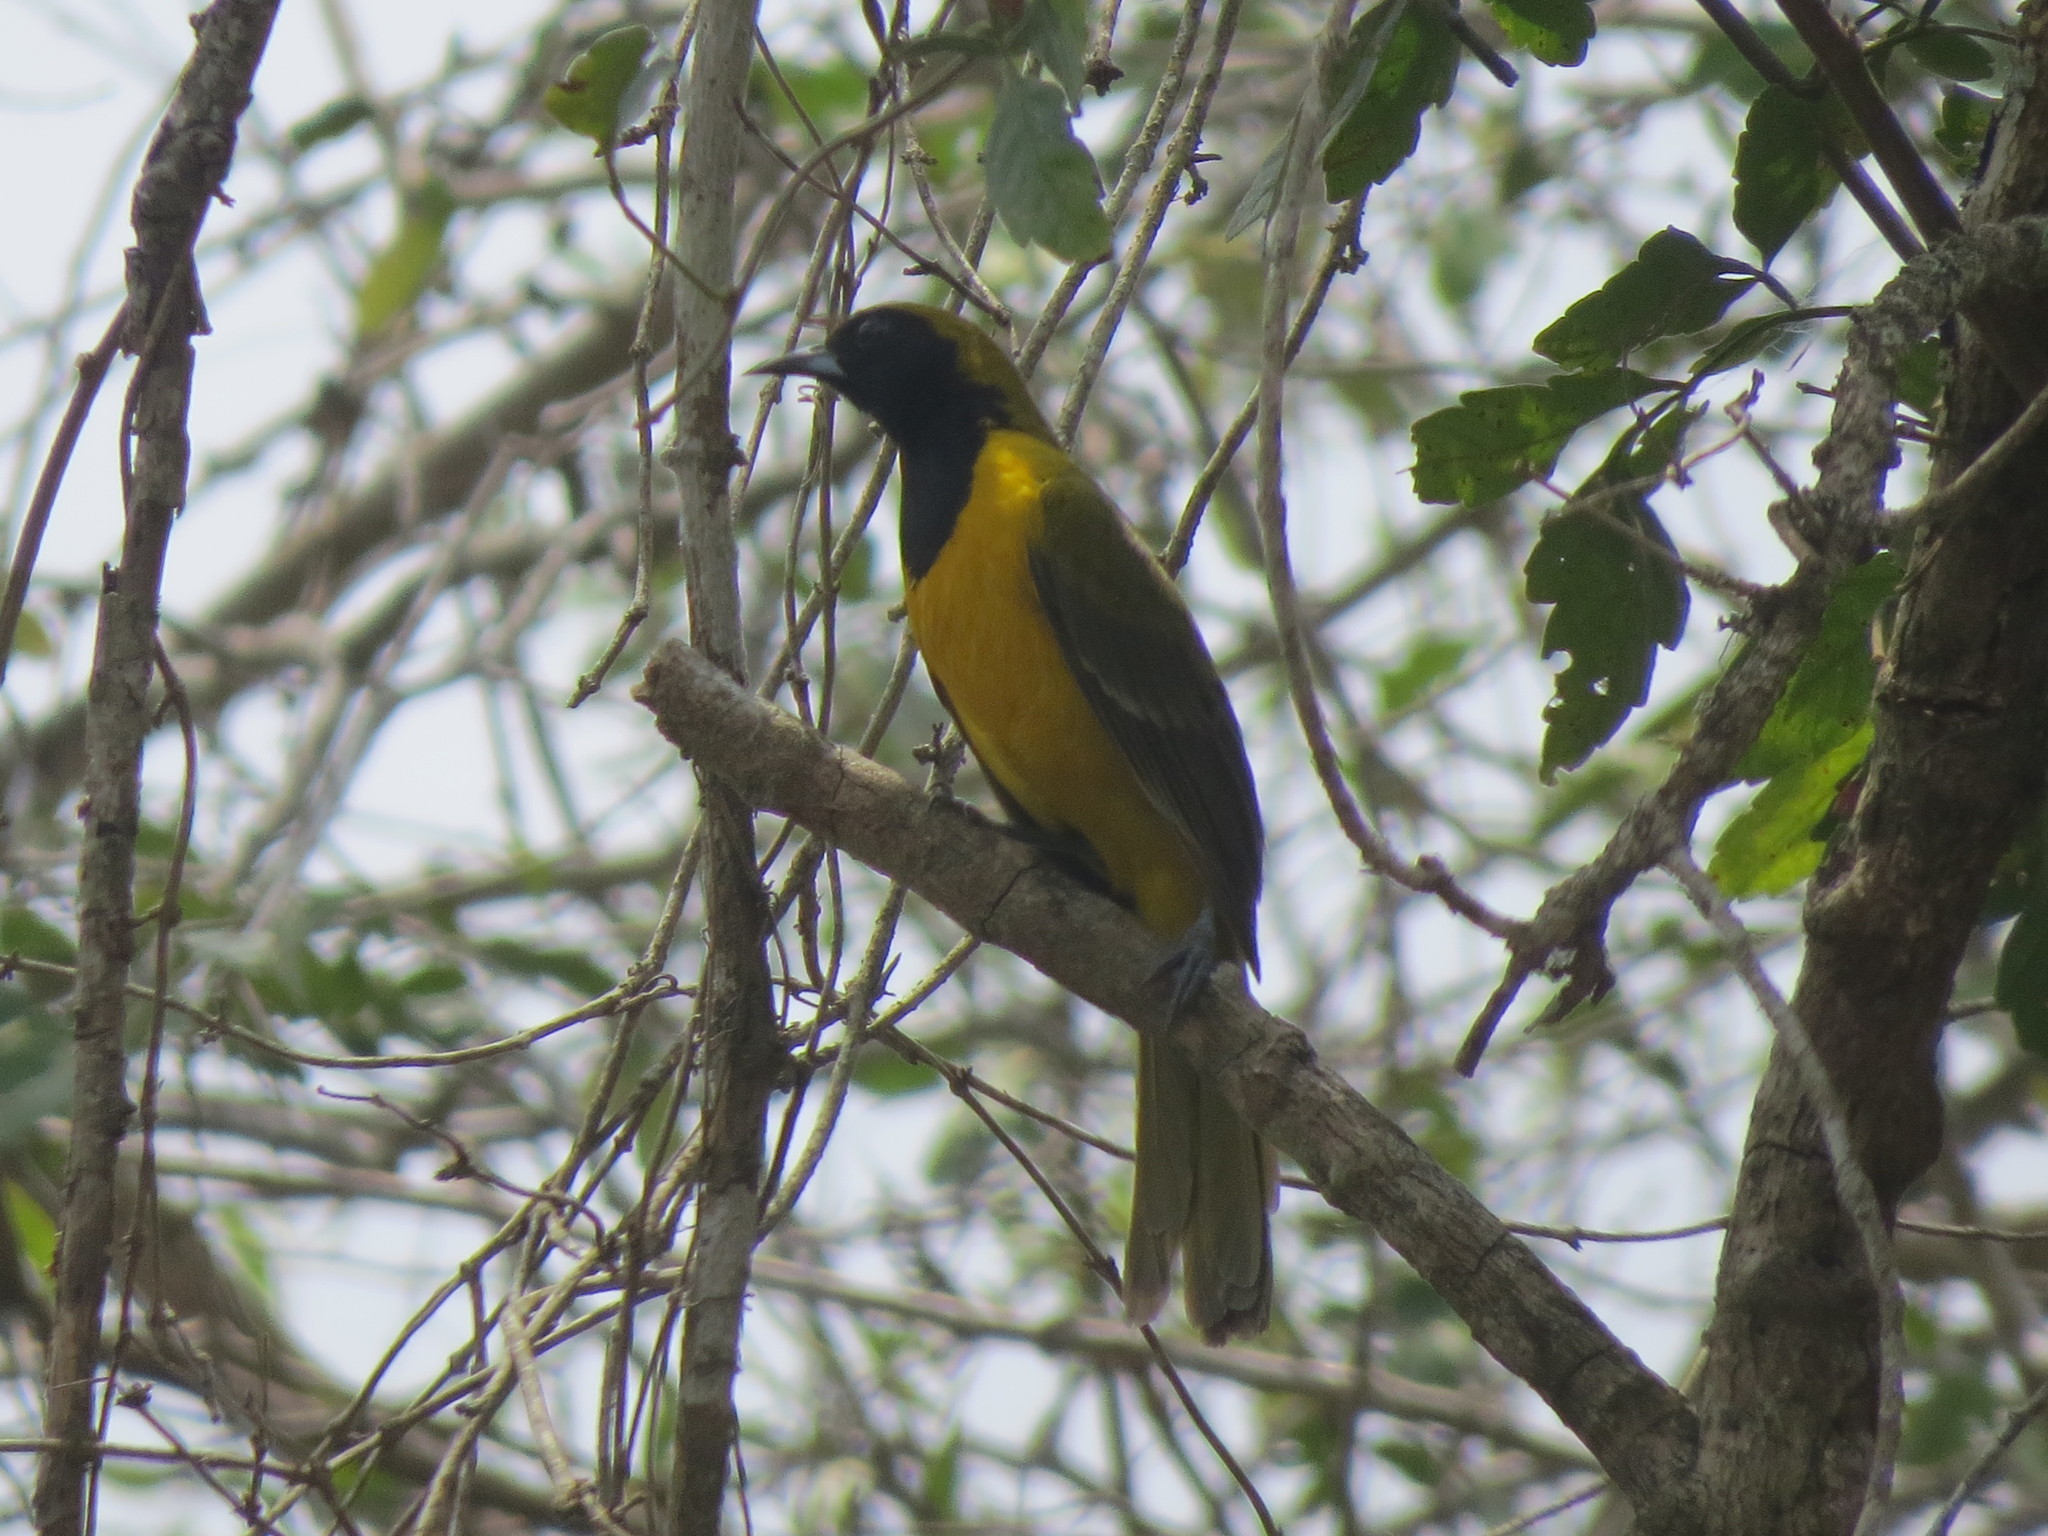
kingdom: Animalia
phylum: Chordata
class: Aves
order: Passeriformes
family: Icteridae
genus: Icterus
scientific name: Icterus maculialatus
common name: Bar-winged oriole
